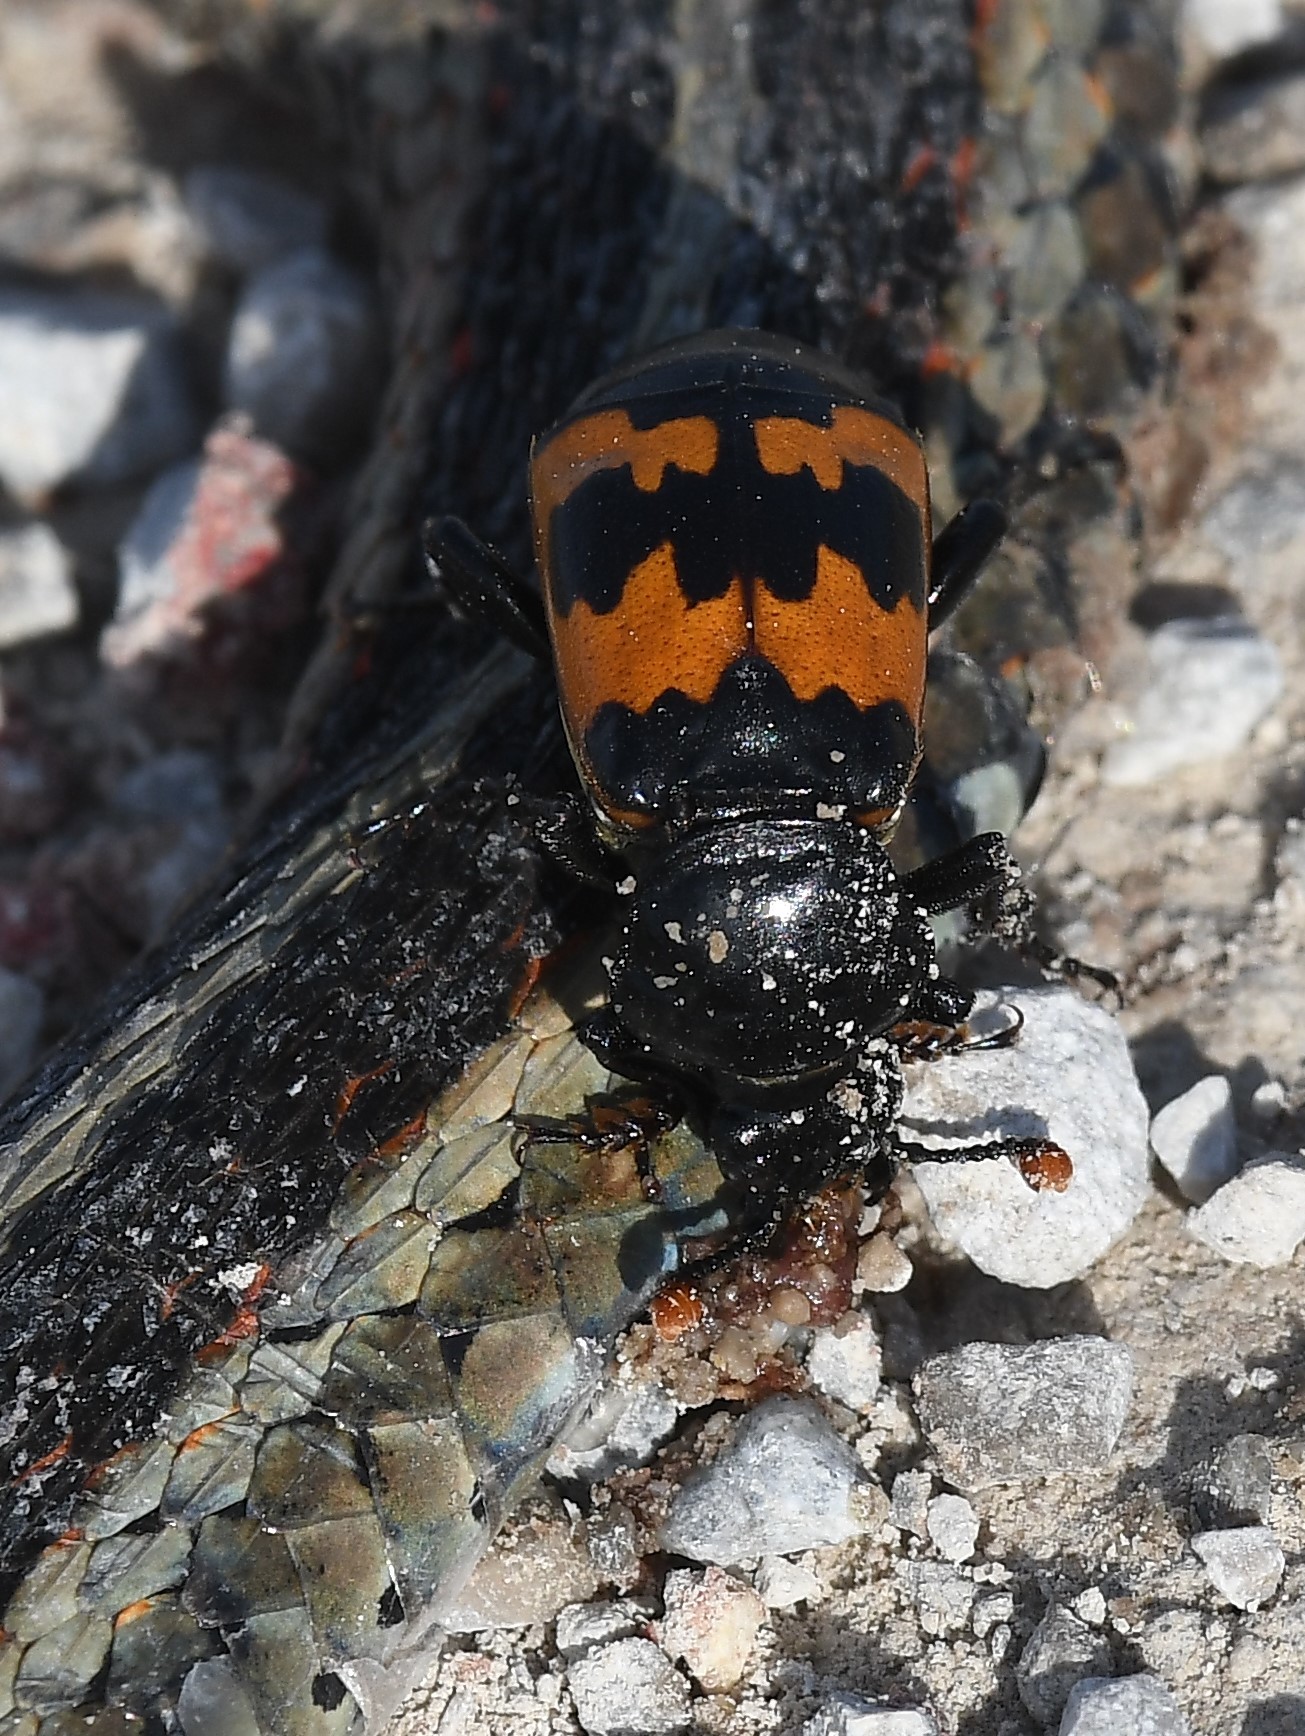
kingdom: Animalia
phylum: Arthropoda
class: Insecta
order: Coleoptera
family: Staphylinidae
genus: Nicrophorus
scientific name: Nicrophorus marginatus
